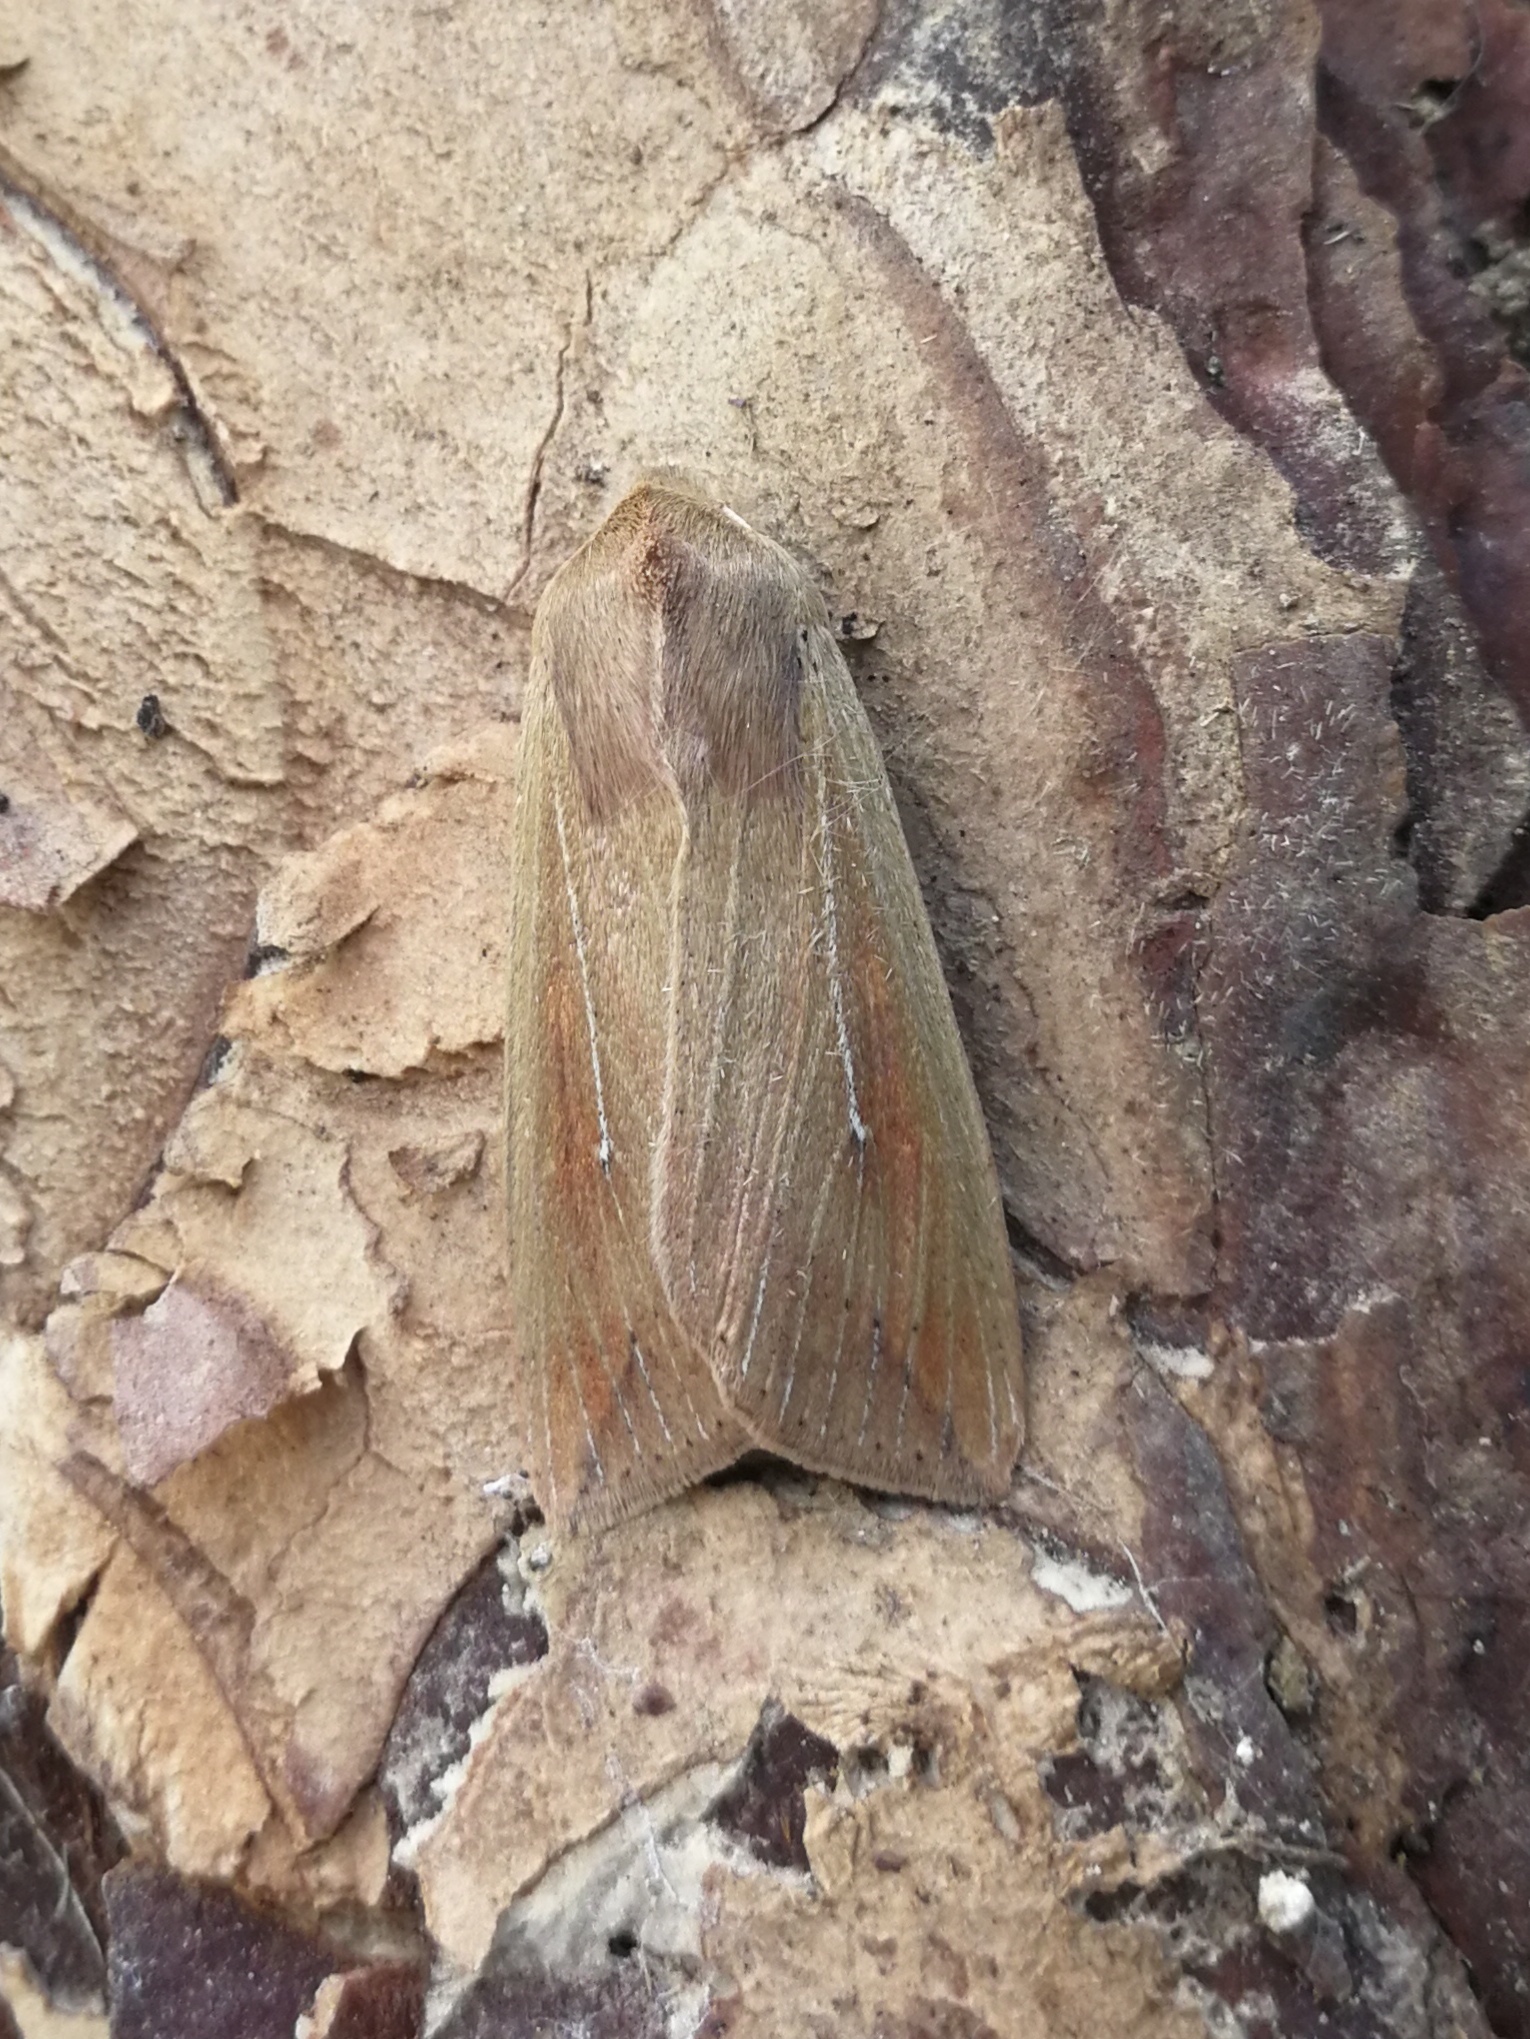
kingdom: Animalia
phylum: Arthropoda
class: Insecta
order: Lepidoptera
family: Noctuidae
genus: Mythimna
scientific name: Mythimna unipuncta
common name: White-speck
